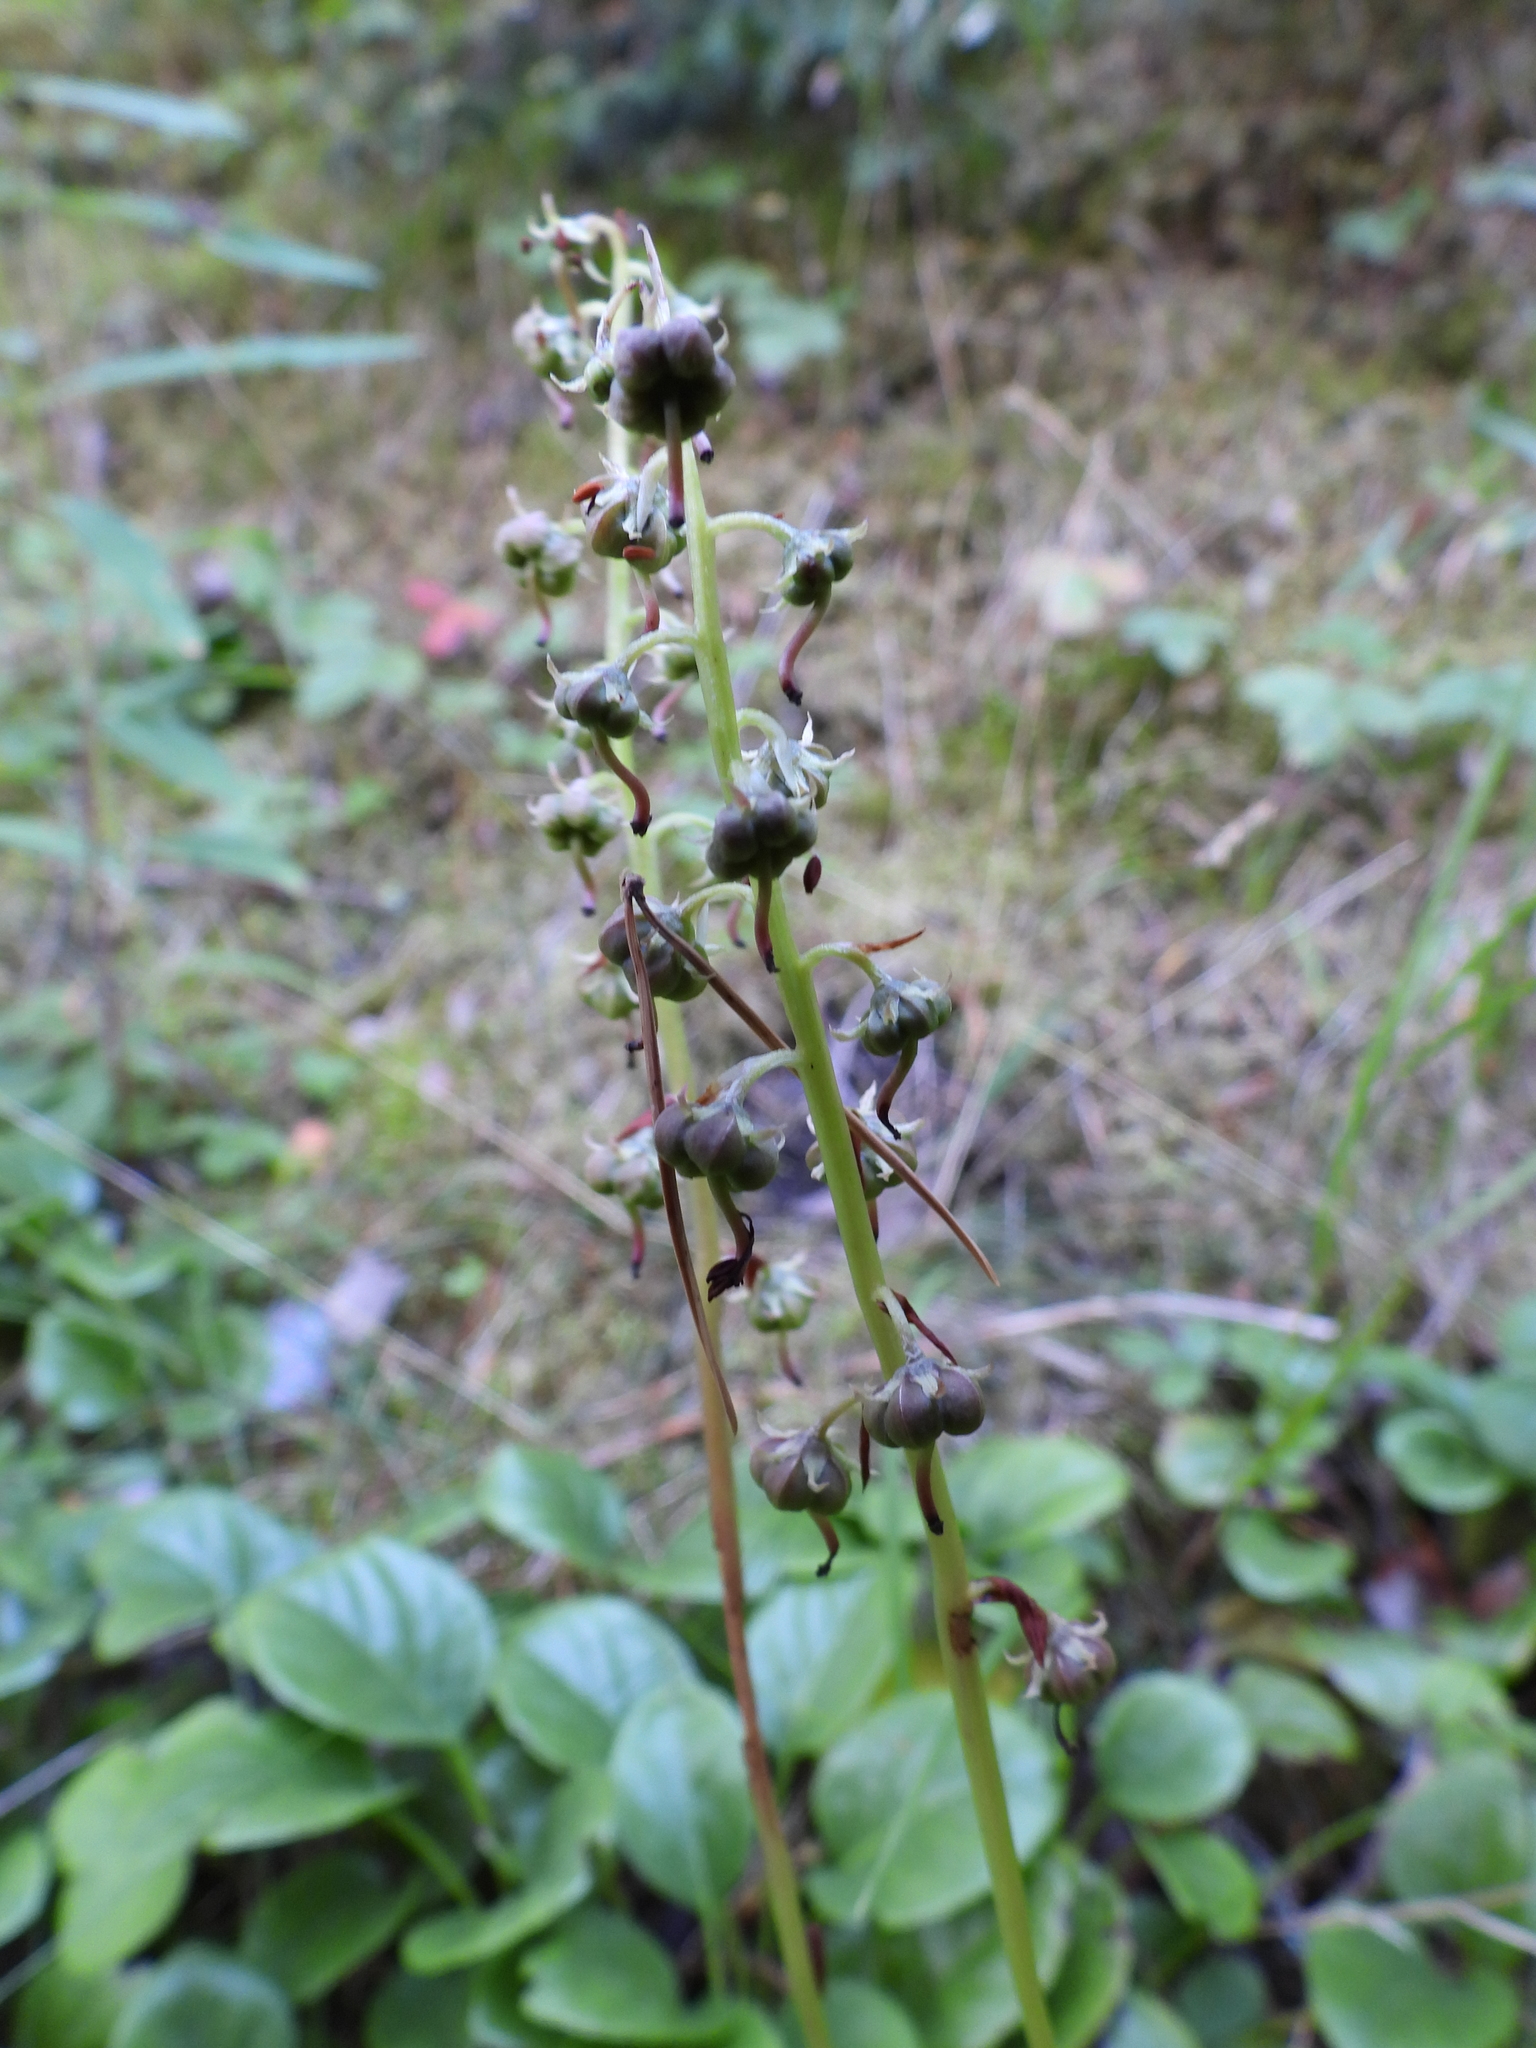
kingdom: Plantae
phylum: Tracheophyta
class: Magnoliopsida
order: Ericales
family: Ericaceae
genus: Pyrola
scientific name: Pyrola rotundifolia
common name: Round-leaved wintergreen
